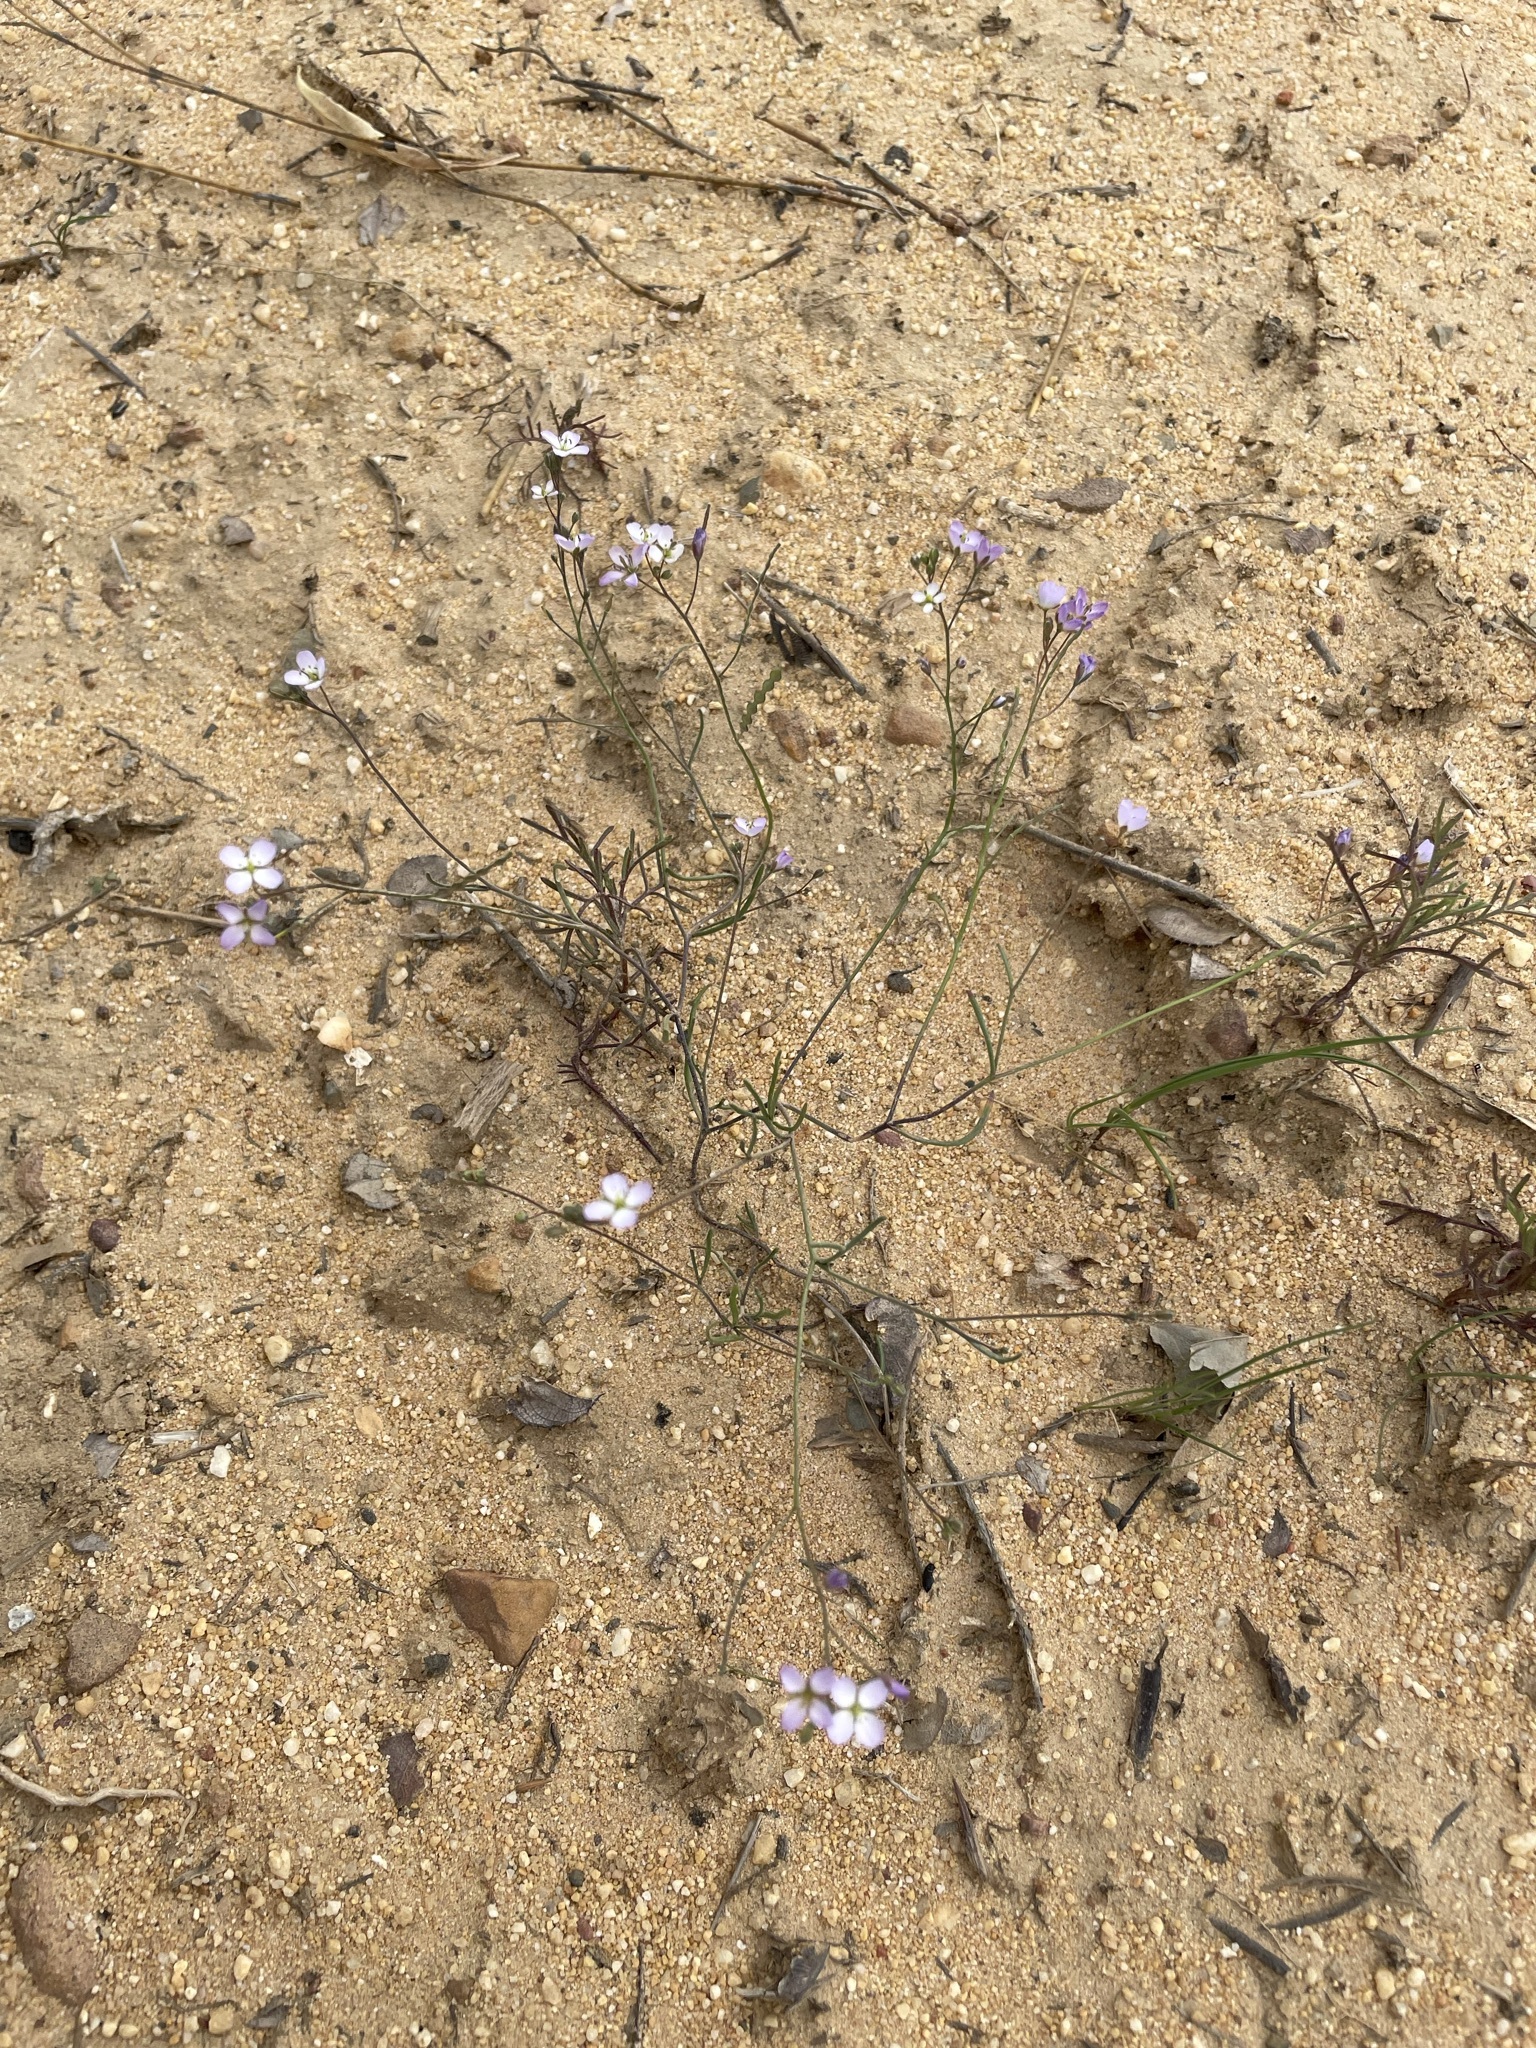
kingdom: Plantae
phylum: Tracheophyta
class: Magnoliopsida
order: Brassicales
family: Brassicaceae
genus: Heliophila
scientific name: Heliophila pinnata
